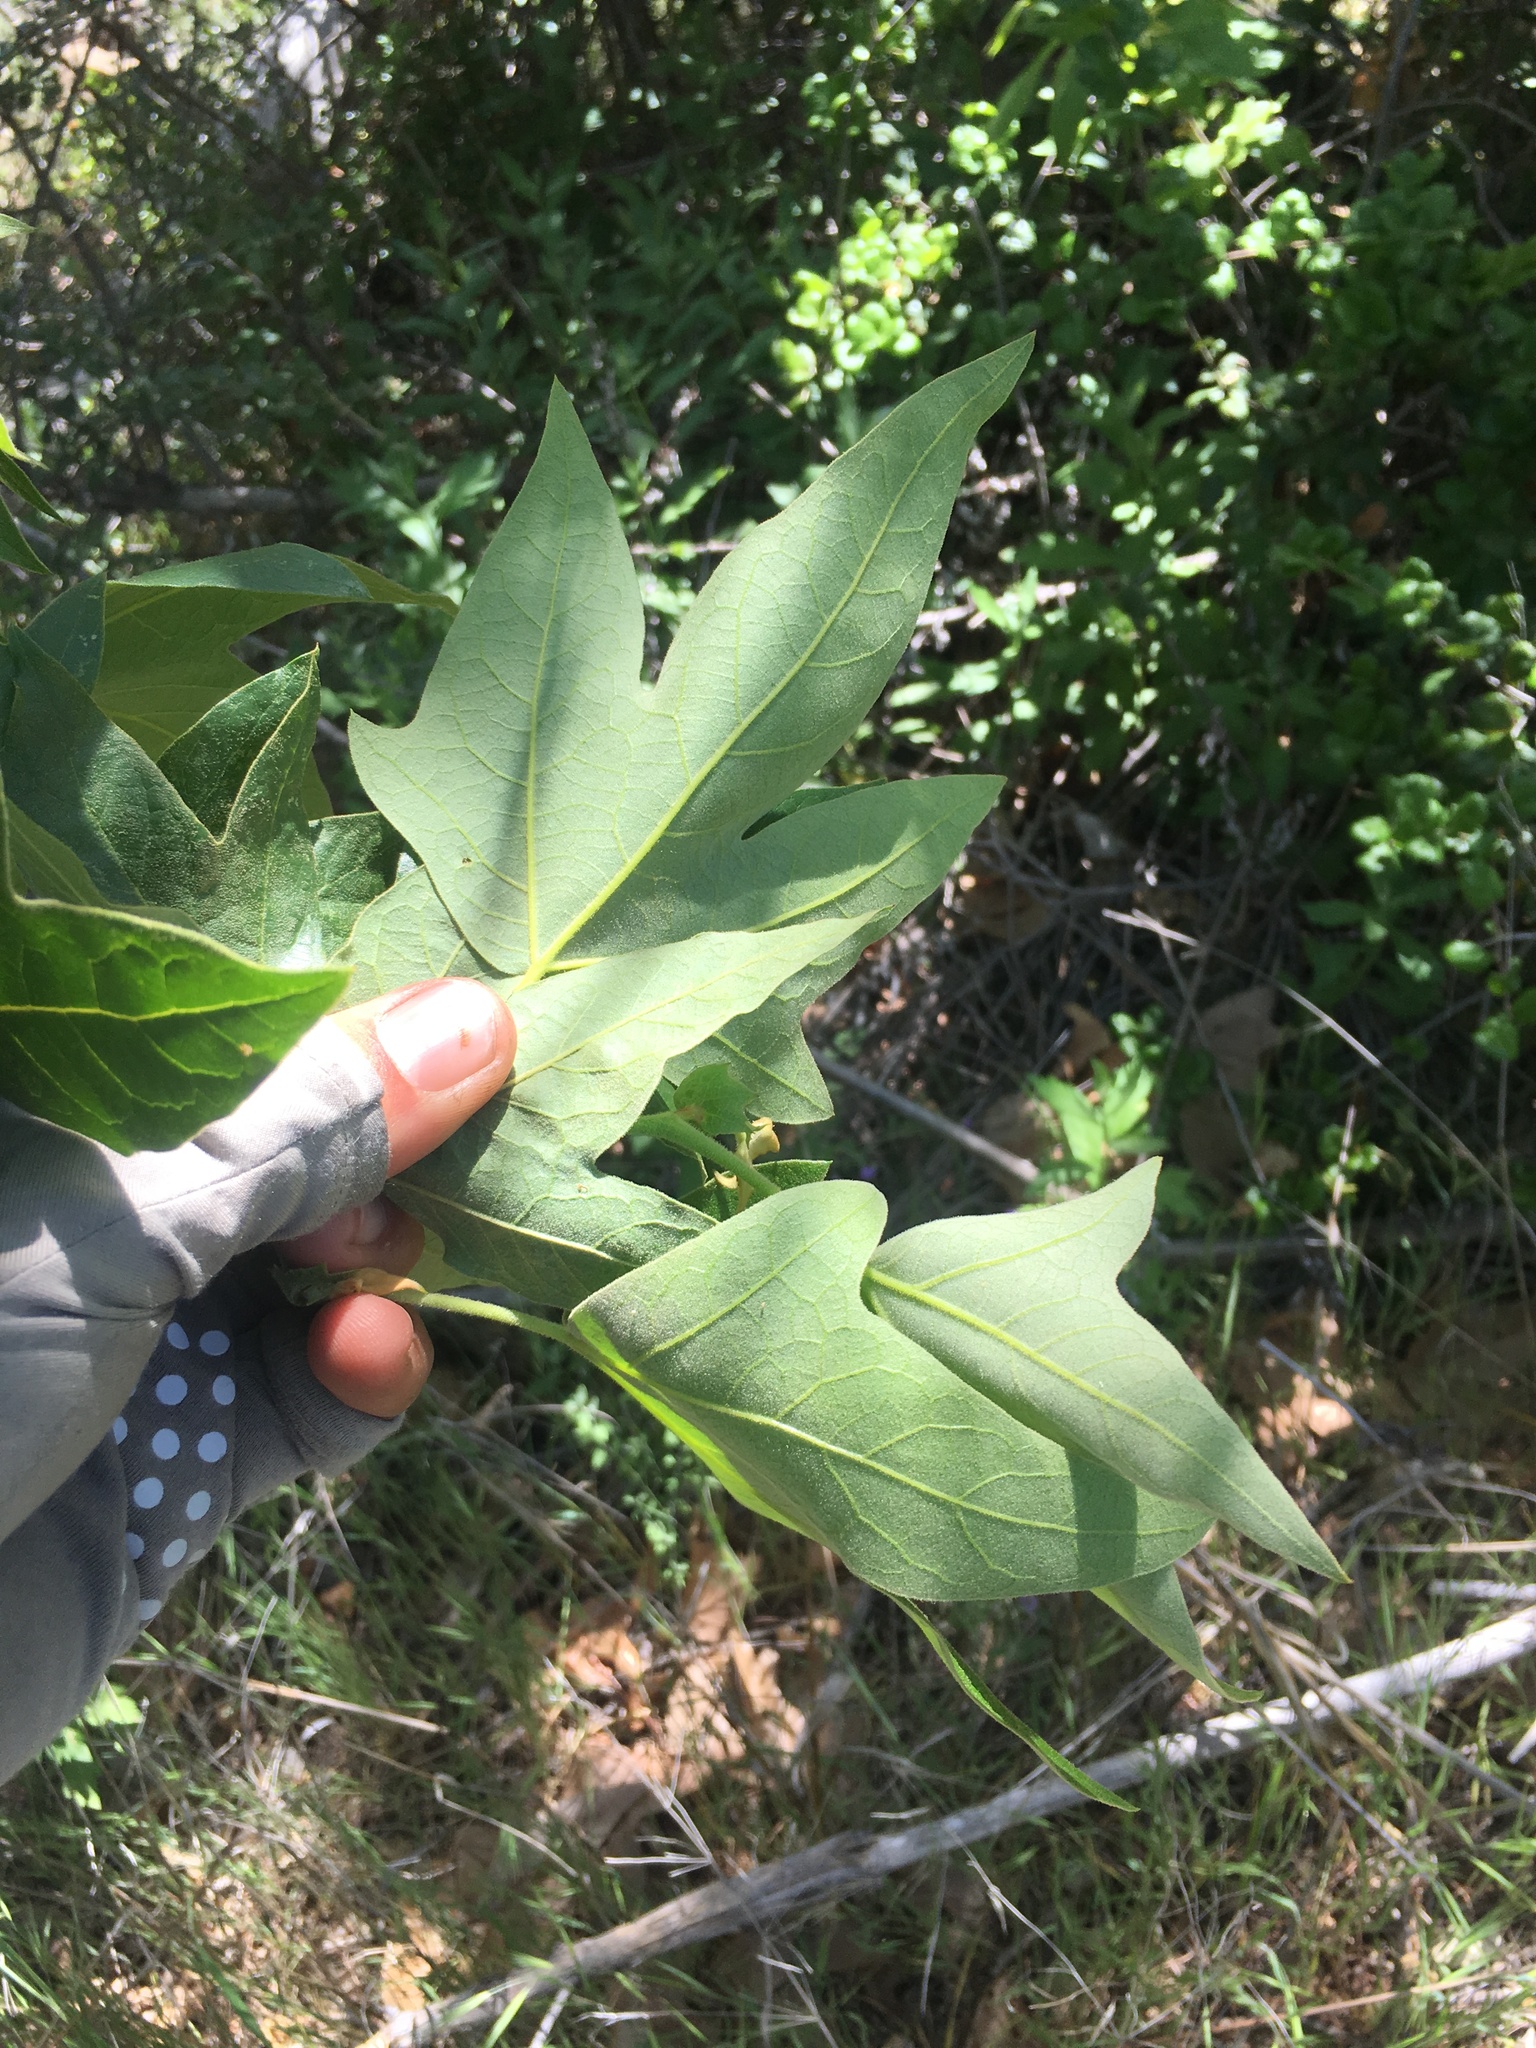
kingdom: Plantae
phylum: Tracheophyta
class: Magnoliopsida
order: Proteales
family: Platanaceae
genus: Platanus
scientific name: Platanus racemosa
